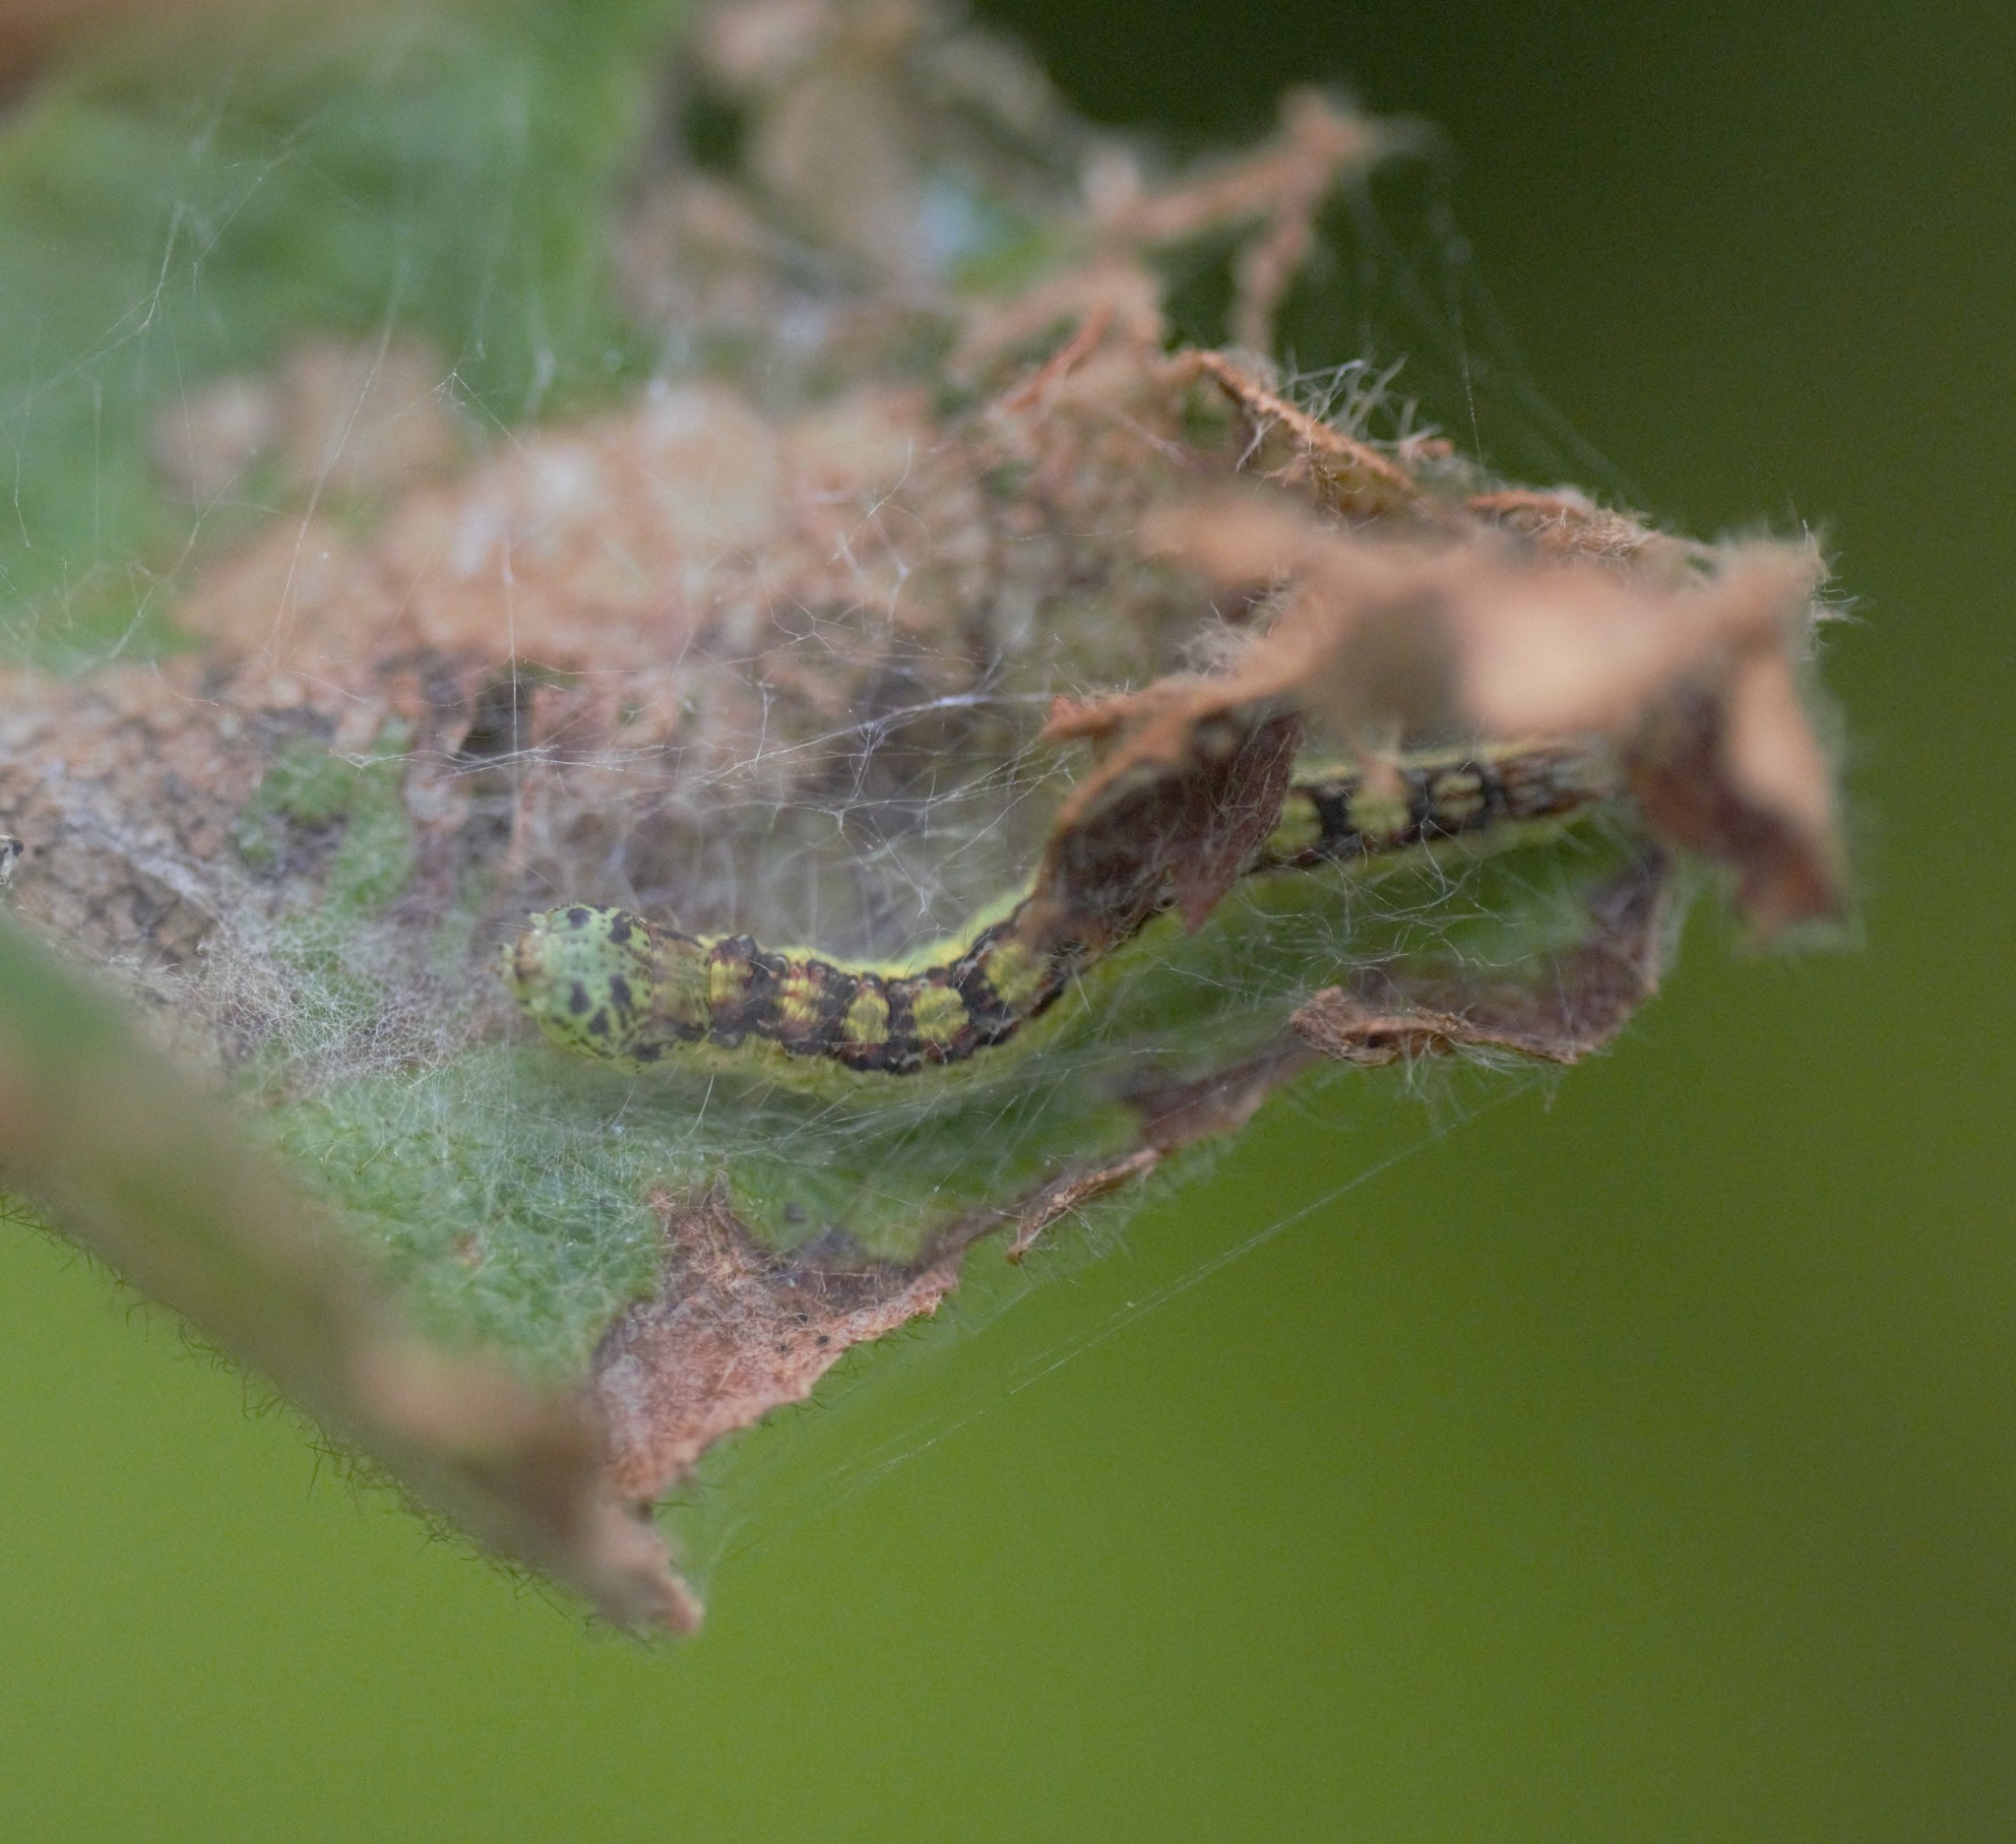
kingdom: Animalia
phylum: Arthropoda
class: Insecta
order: Lepidoptera
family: Pyralidae
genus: Oreana
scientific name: Oreana unicolorella
